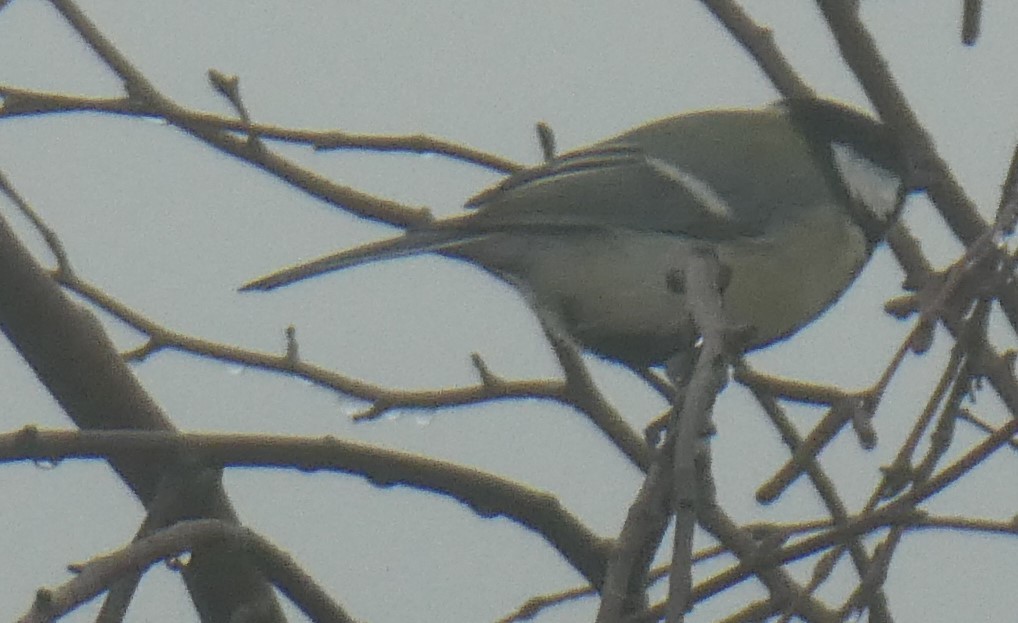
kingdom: Animalia
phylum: Chordata
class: Aves
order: Passeriformes
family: Paridae
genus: Parus
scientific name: Parus major
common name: Great tit
